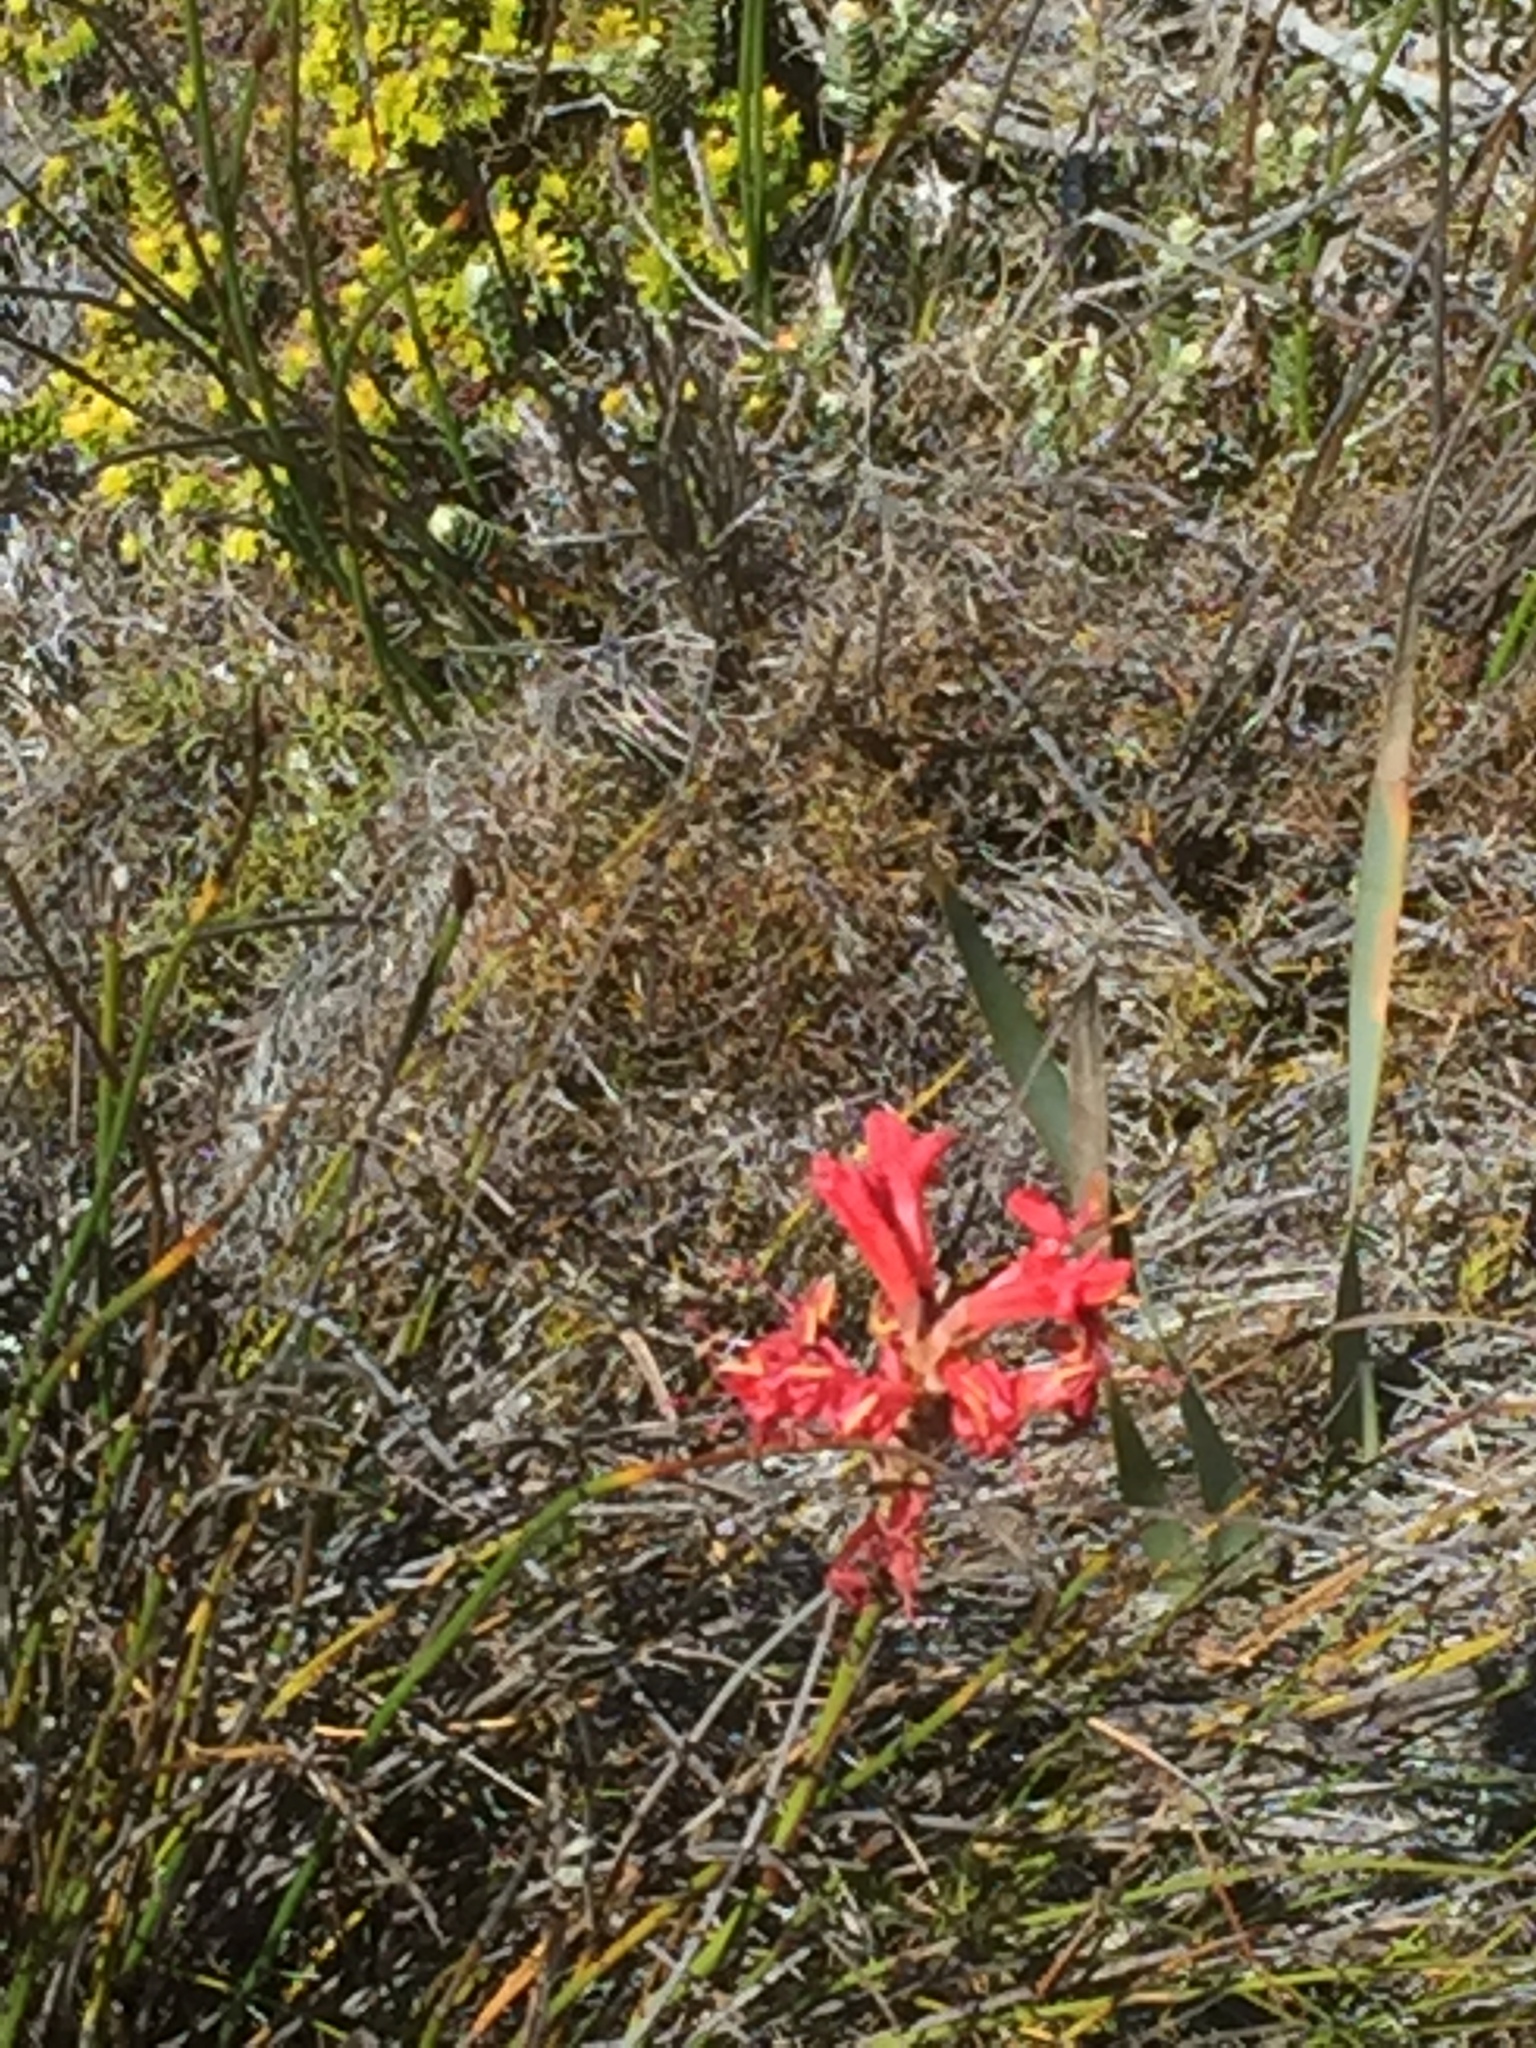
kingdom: Plantae
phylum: Tracheophyta
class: Liliopsida
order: Asparagales
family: Iridaceae
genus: Tritoniopsis
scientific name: Tritoniopsis triticea
